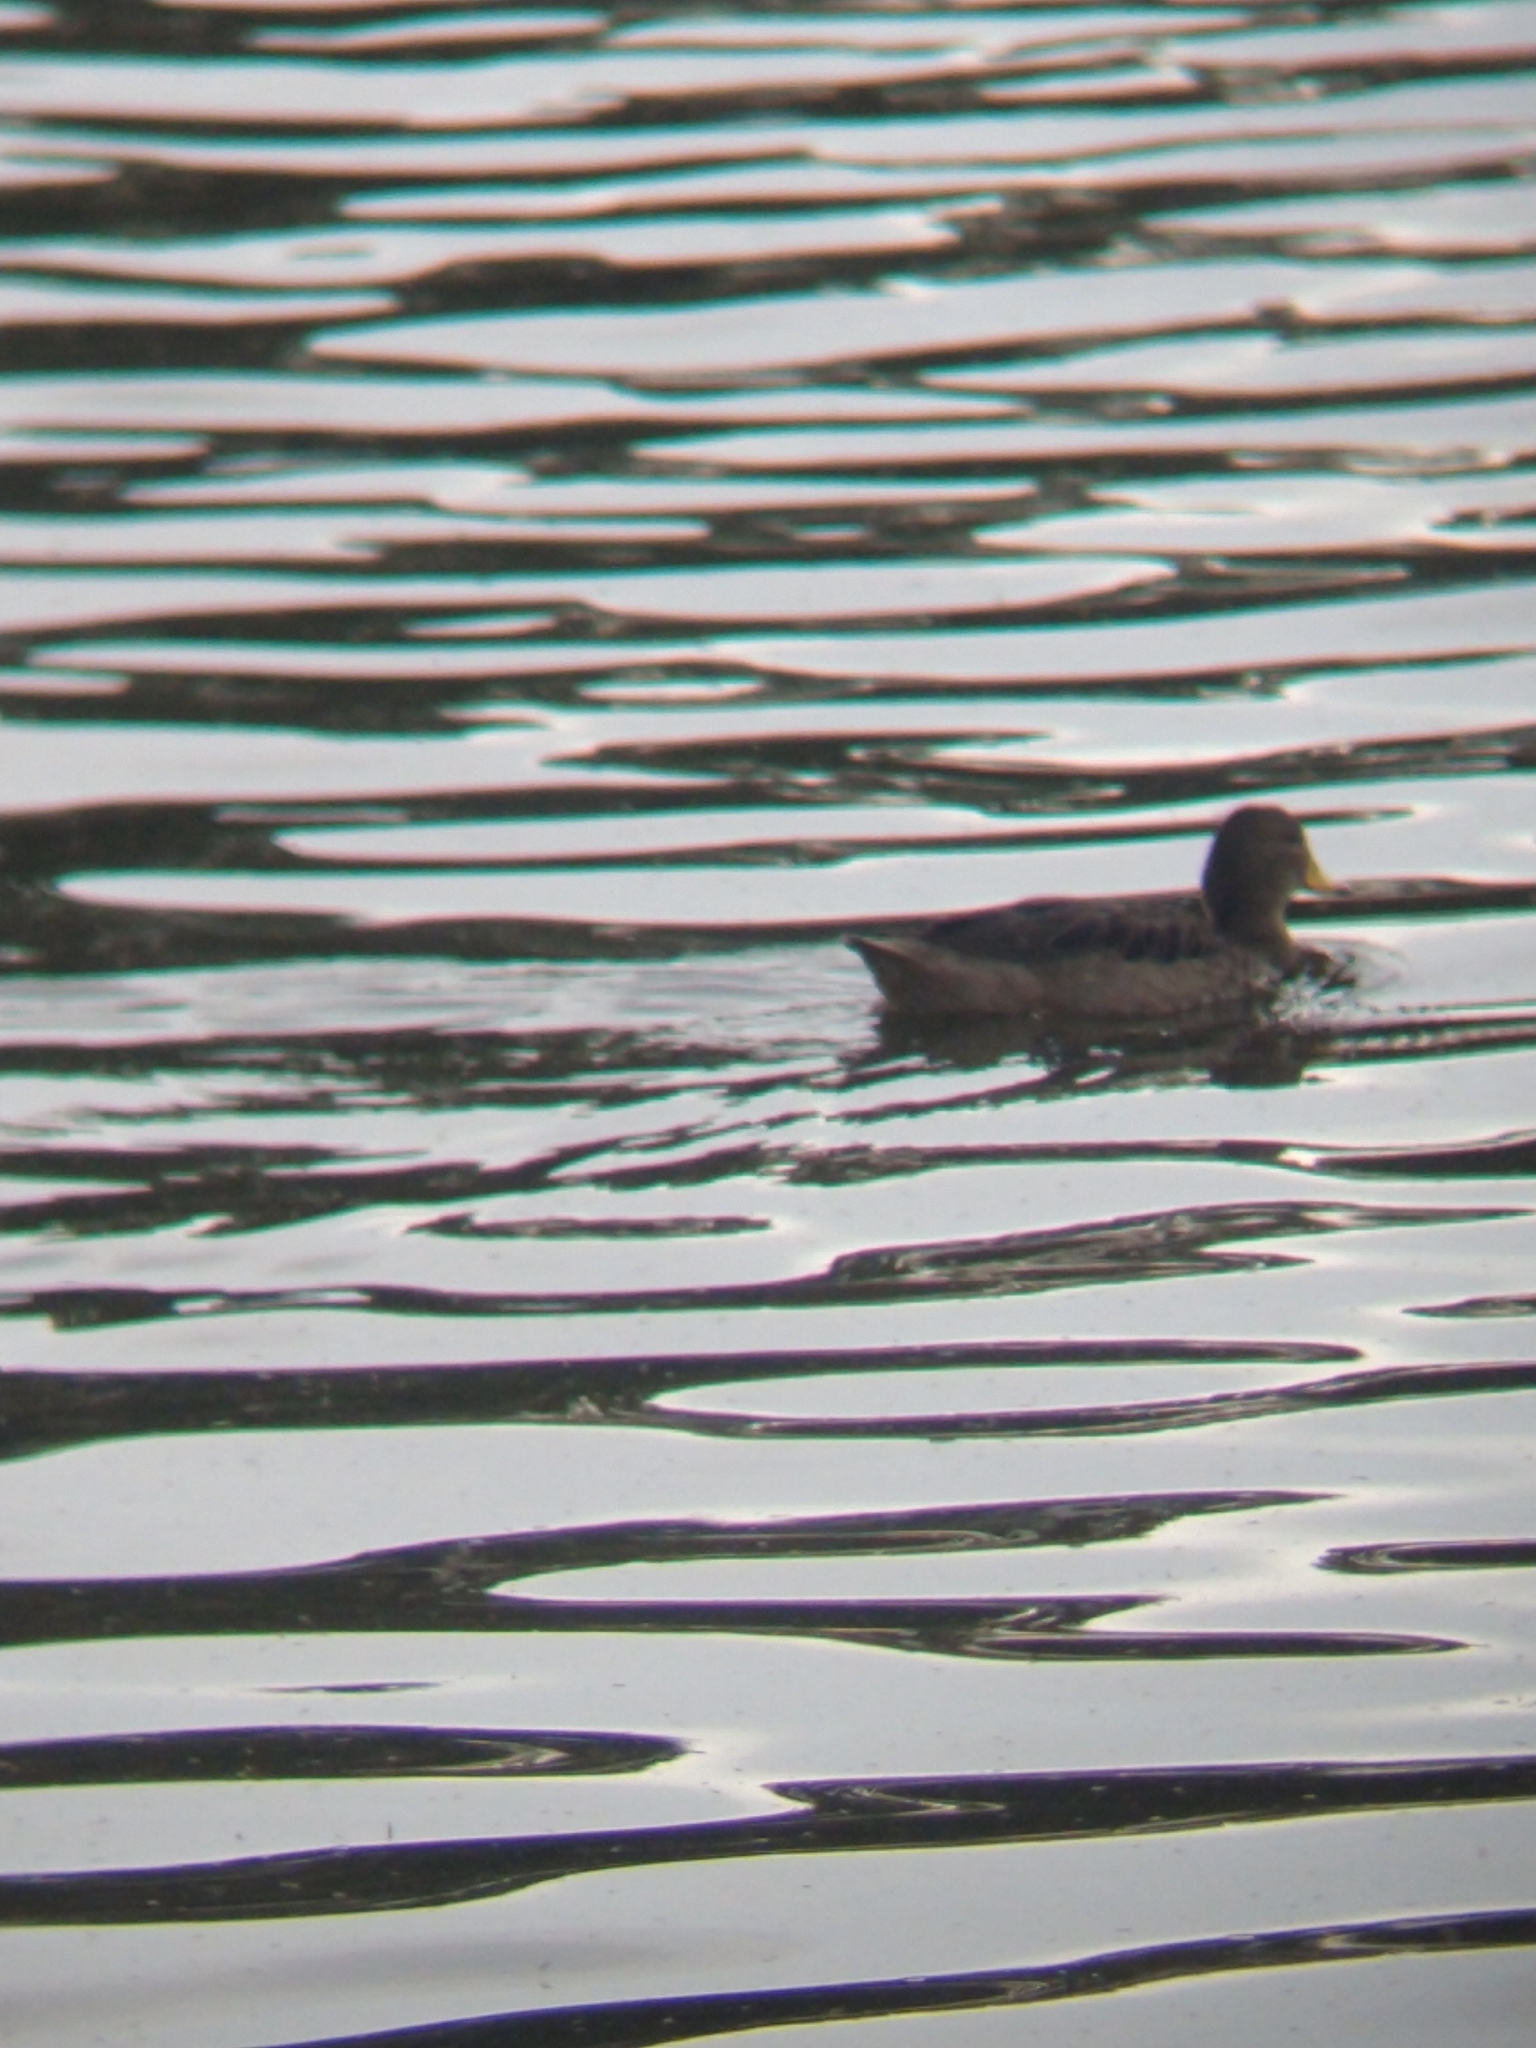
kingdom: Animalia
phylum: Chordata
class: Aves
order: Anseriformes
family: Anatidae
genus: Anas
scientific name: Anas flavirostris
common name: Yellow-billed teal
